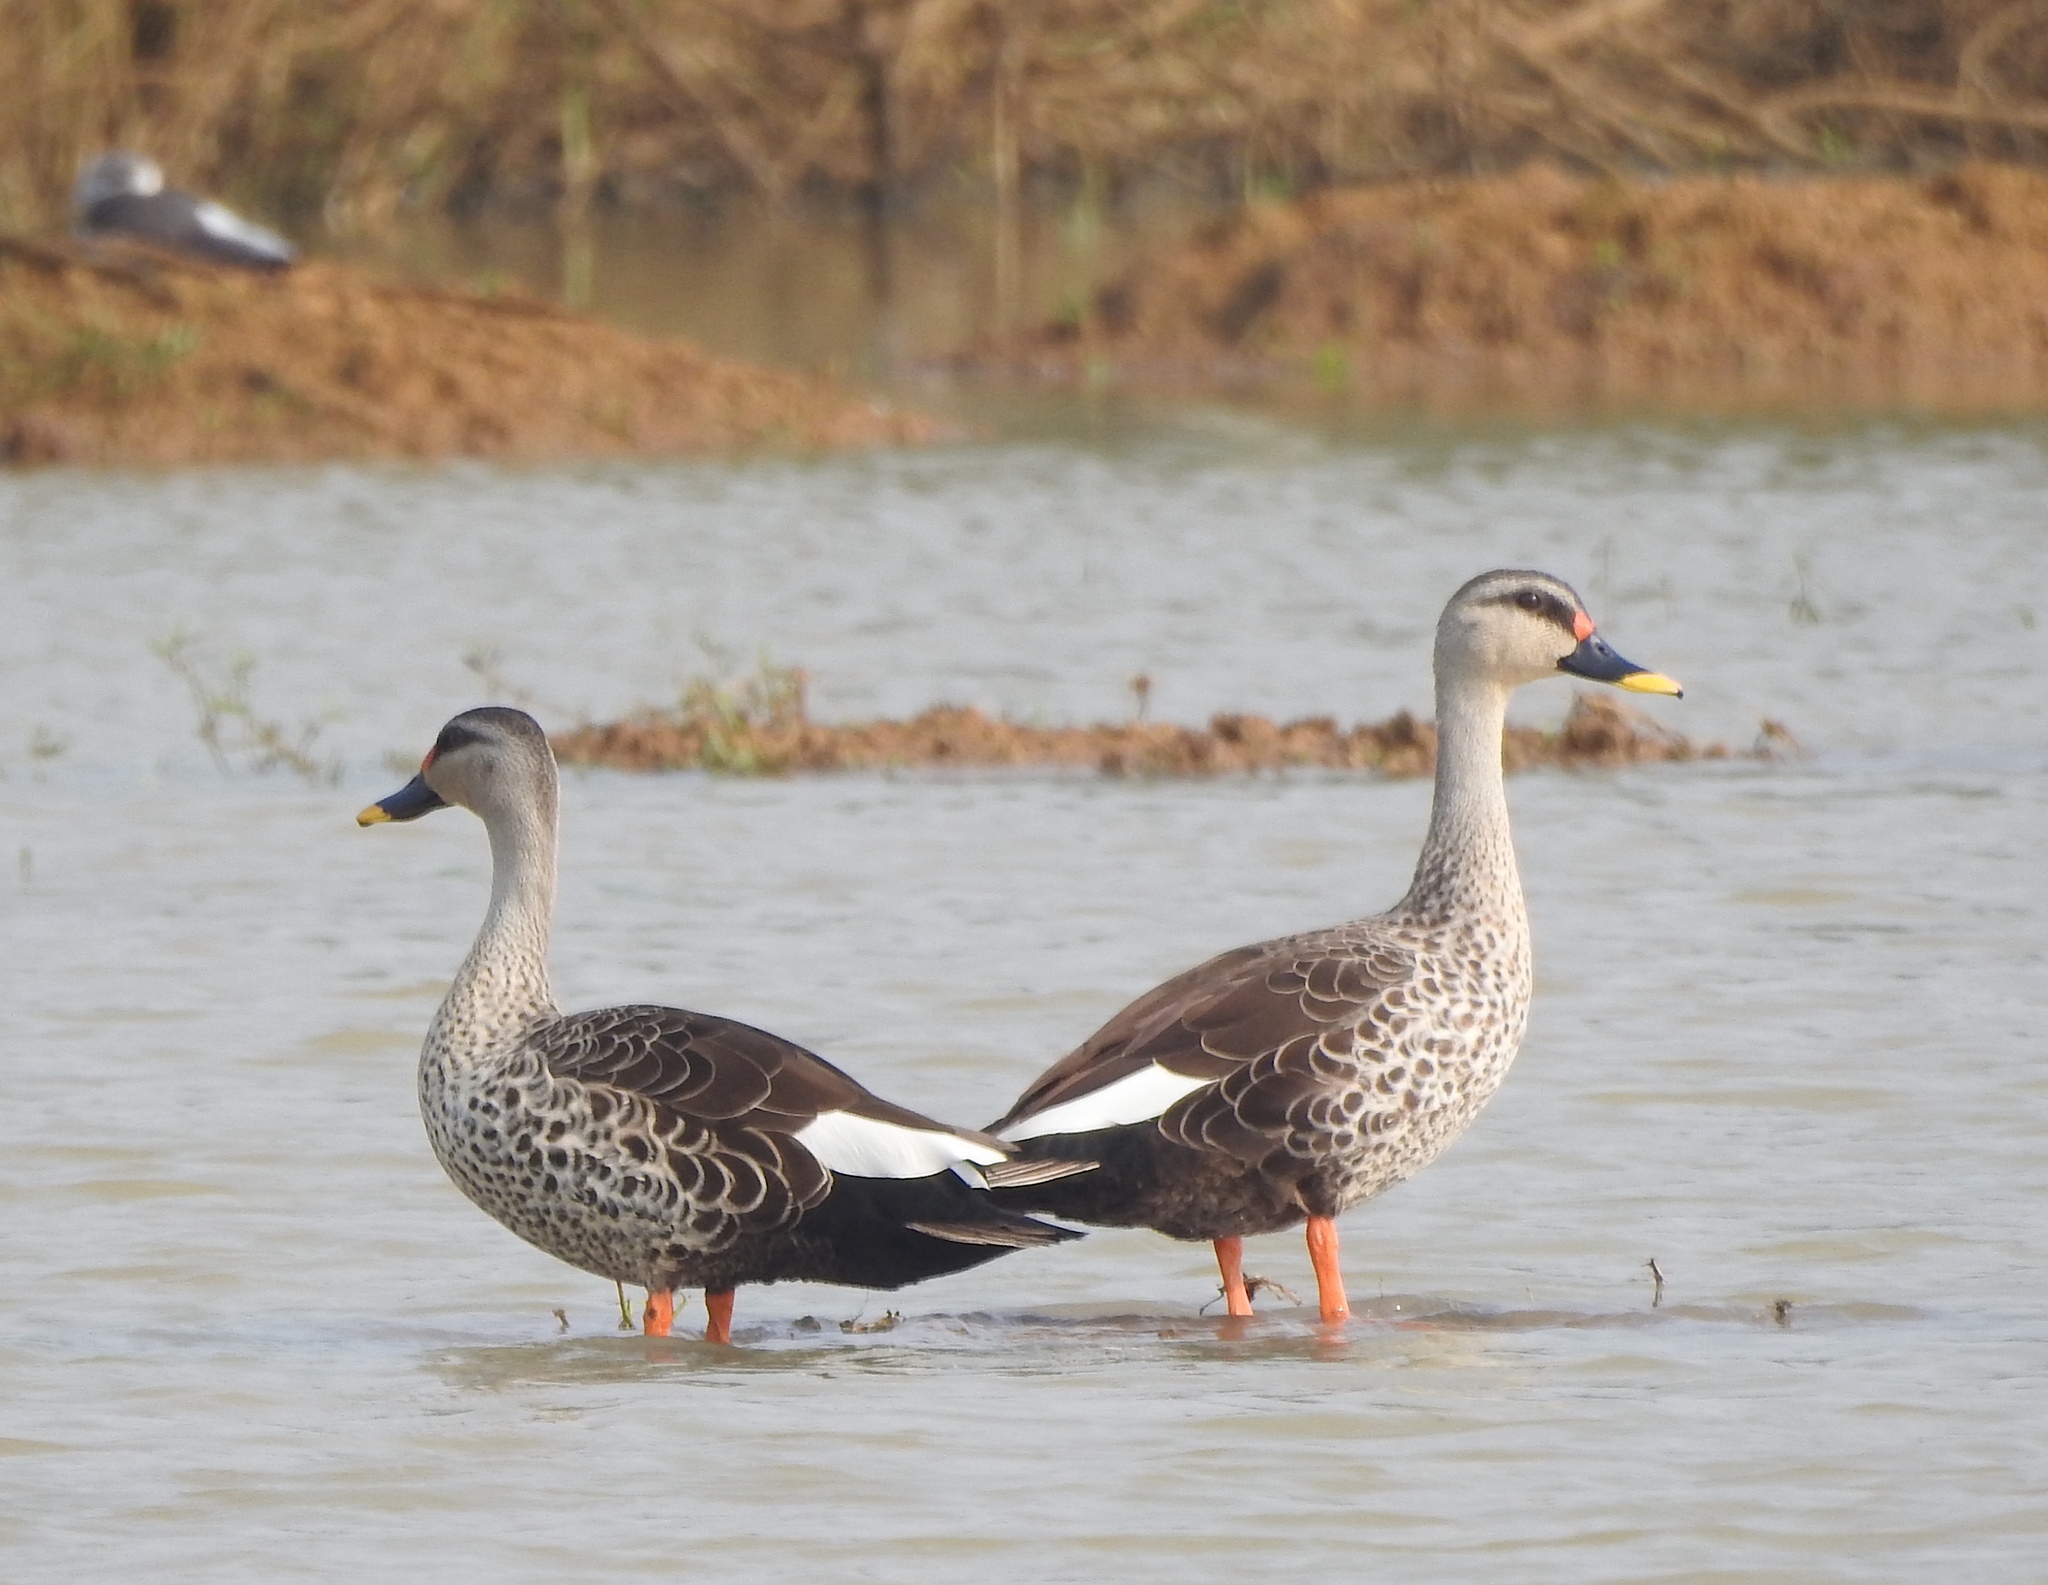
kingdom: Animalia
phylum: Chordata
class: Aves
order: Anseriformes
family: Anatidae
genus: Anas
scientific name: Anas poecilorhyncha
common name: Indian spot-billed duck
